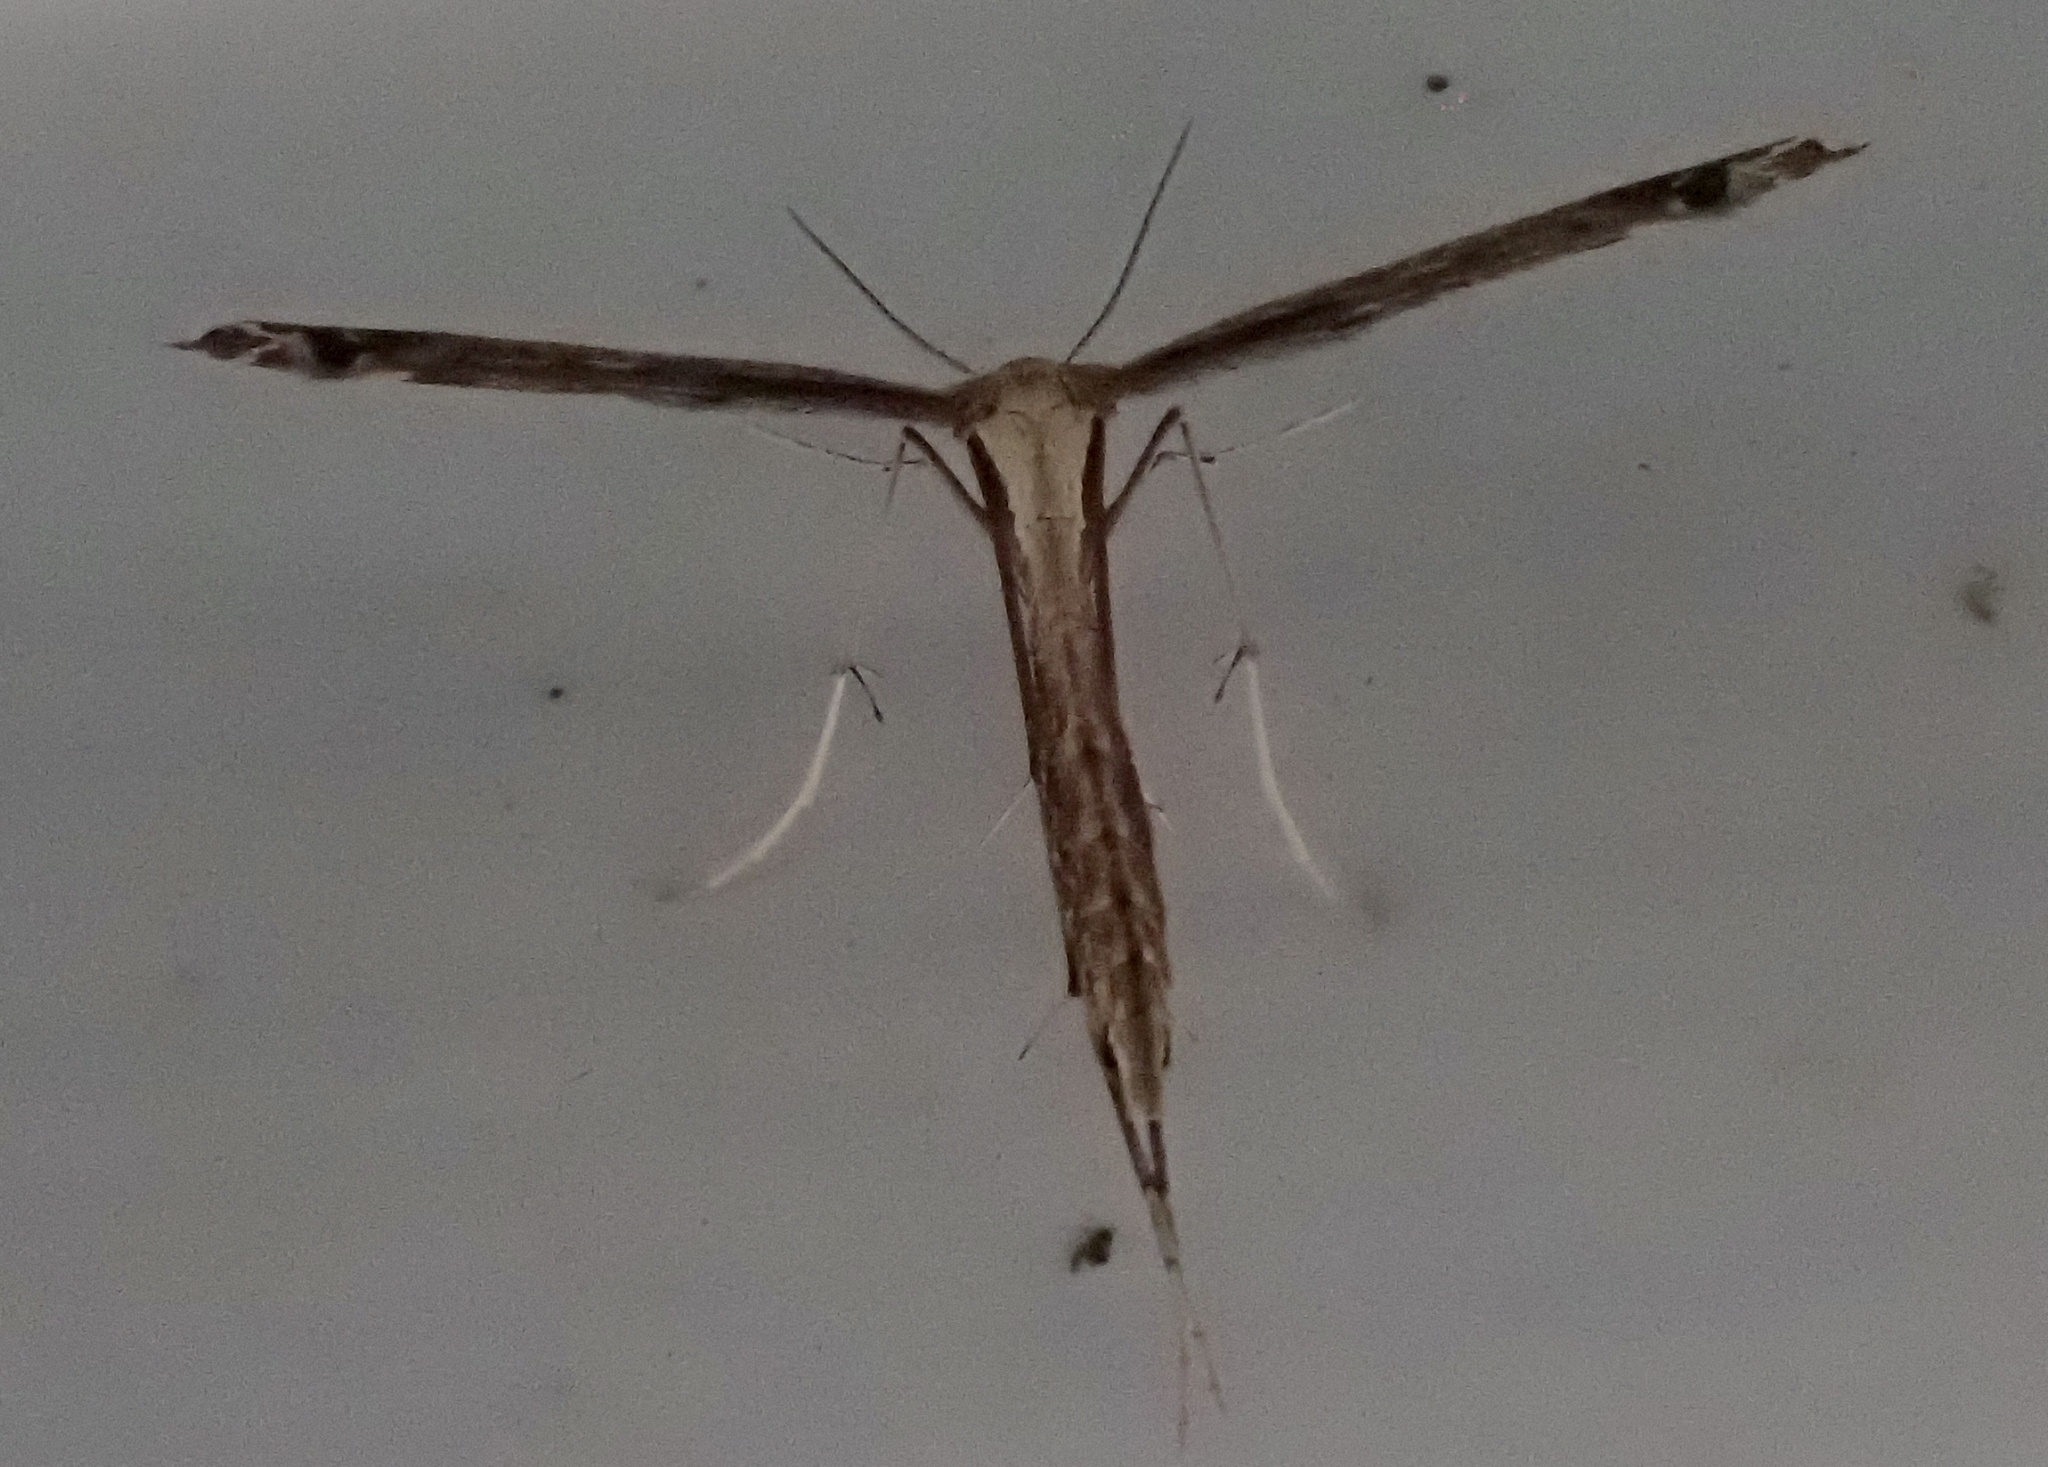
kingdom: Animalia
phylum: Arthropoda
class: Insecta
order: Lepidoptera
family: Pterophoridae
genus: Stenoptilodes
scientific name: Stenoptilodes brevipennis
